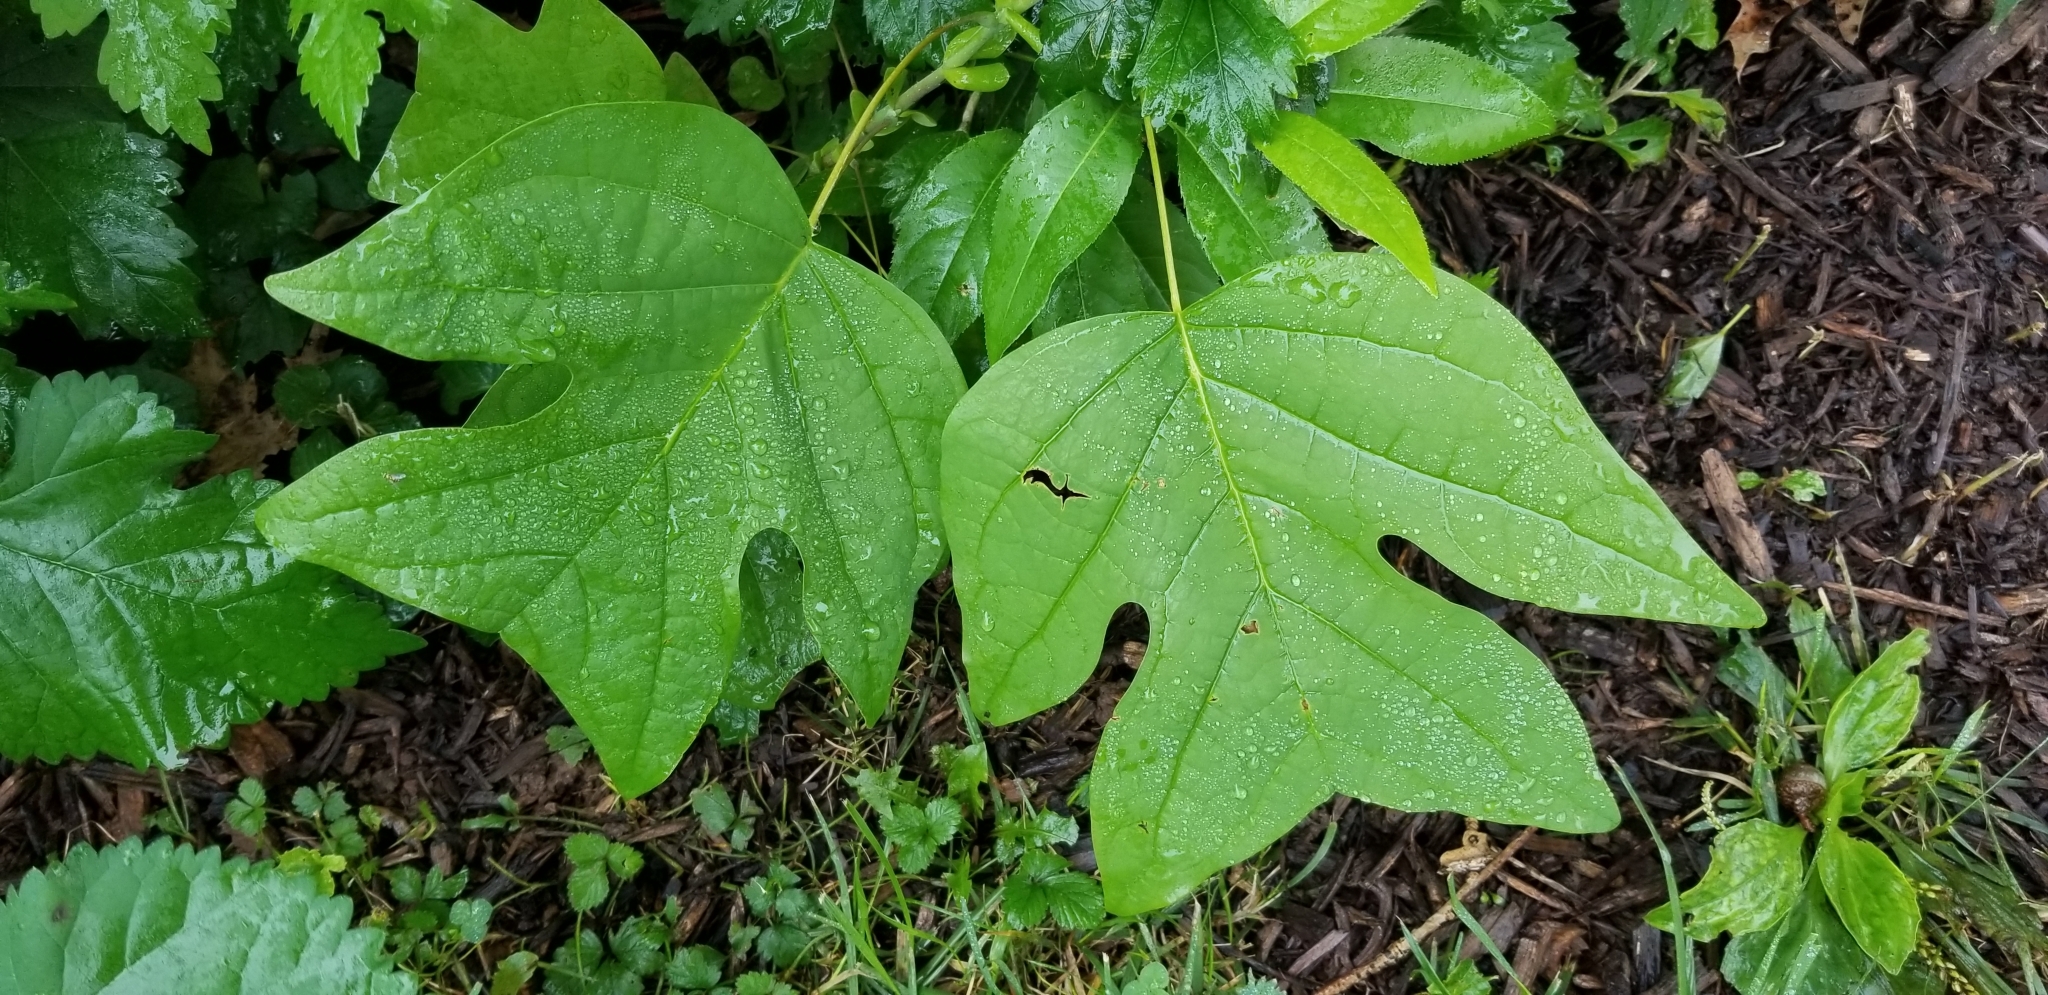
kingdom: Plantae
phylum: Tracheophyta
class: Magnoliopsida
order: Magnoliales
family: Magnoliaceae
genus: Liriodendron
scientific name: Liriodendron tulipifera
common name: Tulip tree
